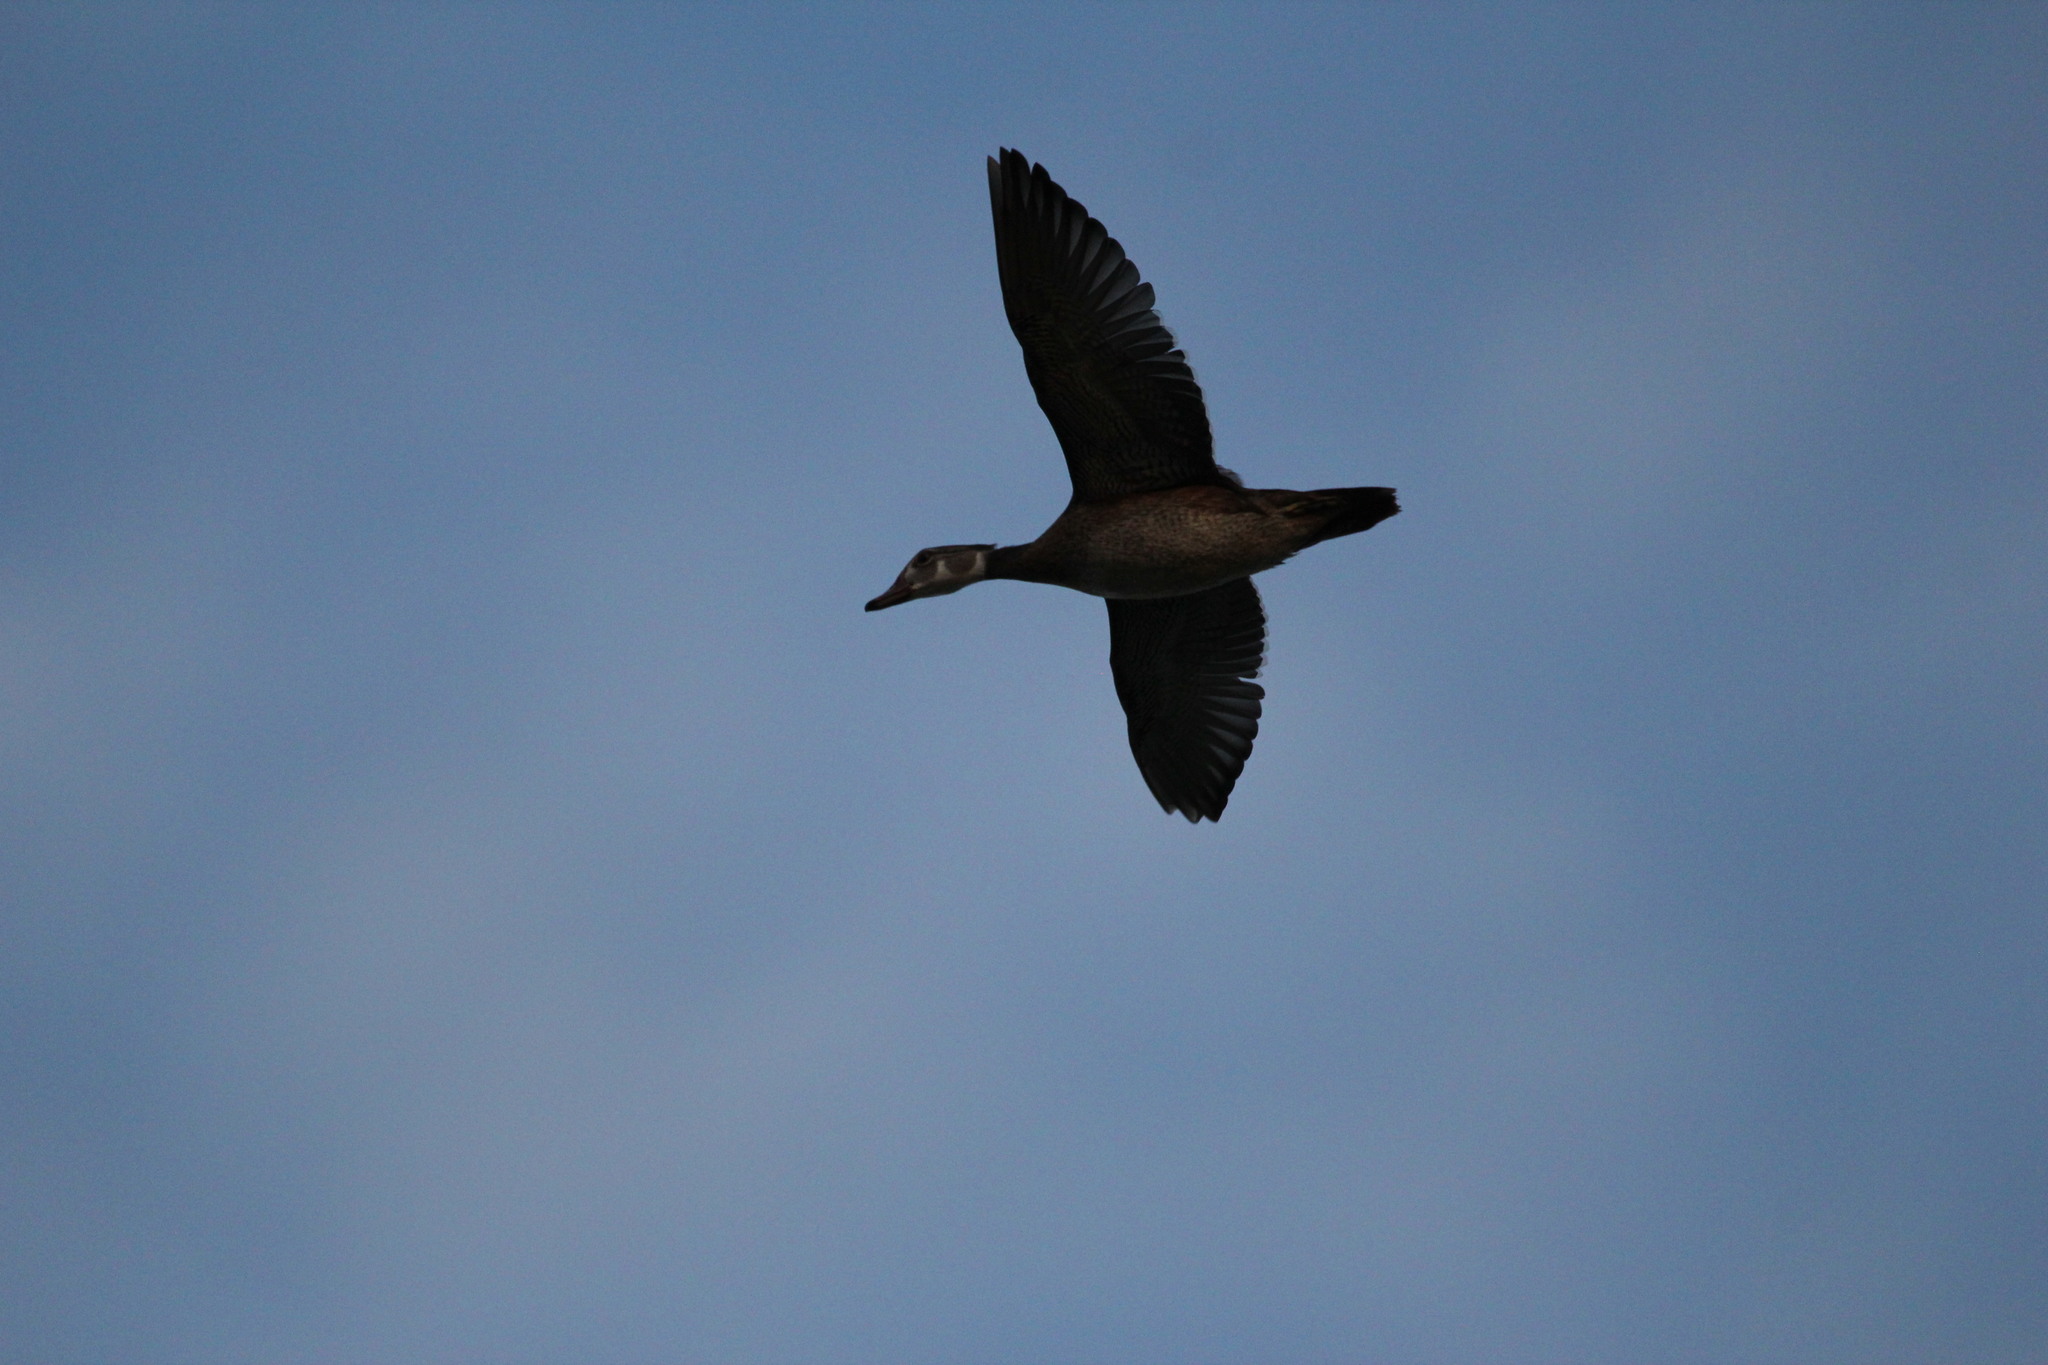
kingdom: Animalia
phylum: Chordata
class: Aves
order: Anseriformes
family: Anatidae
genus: Aix
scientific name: Aix sponsa
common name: Wood duck
